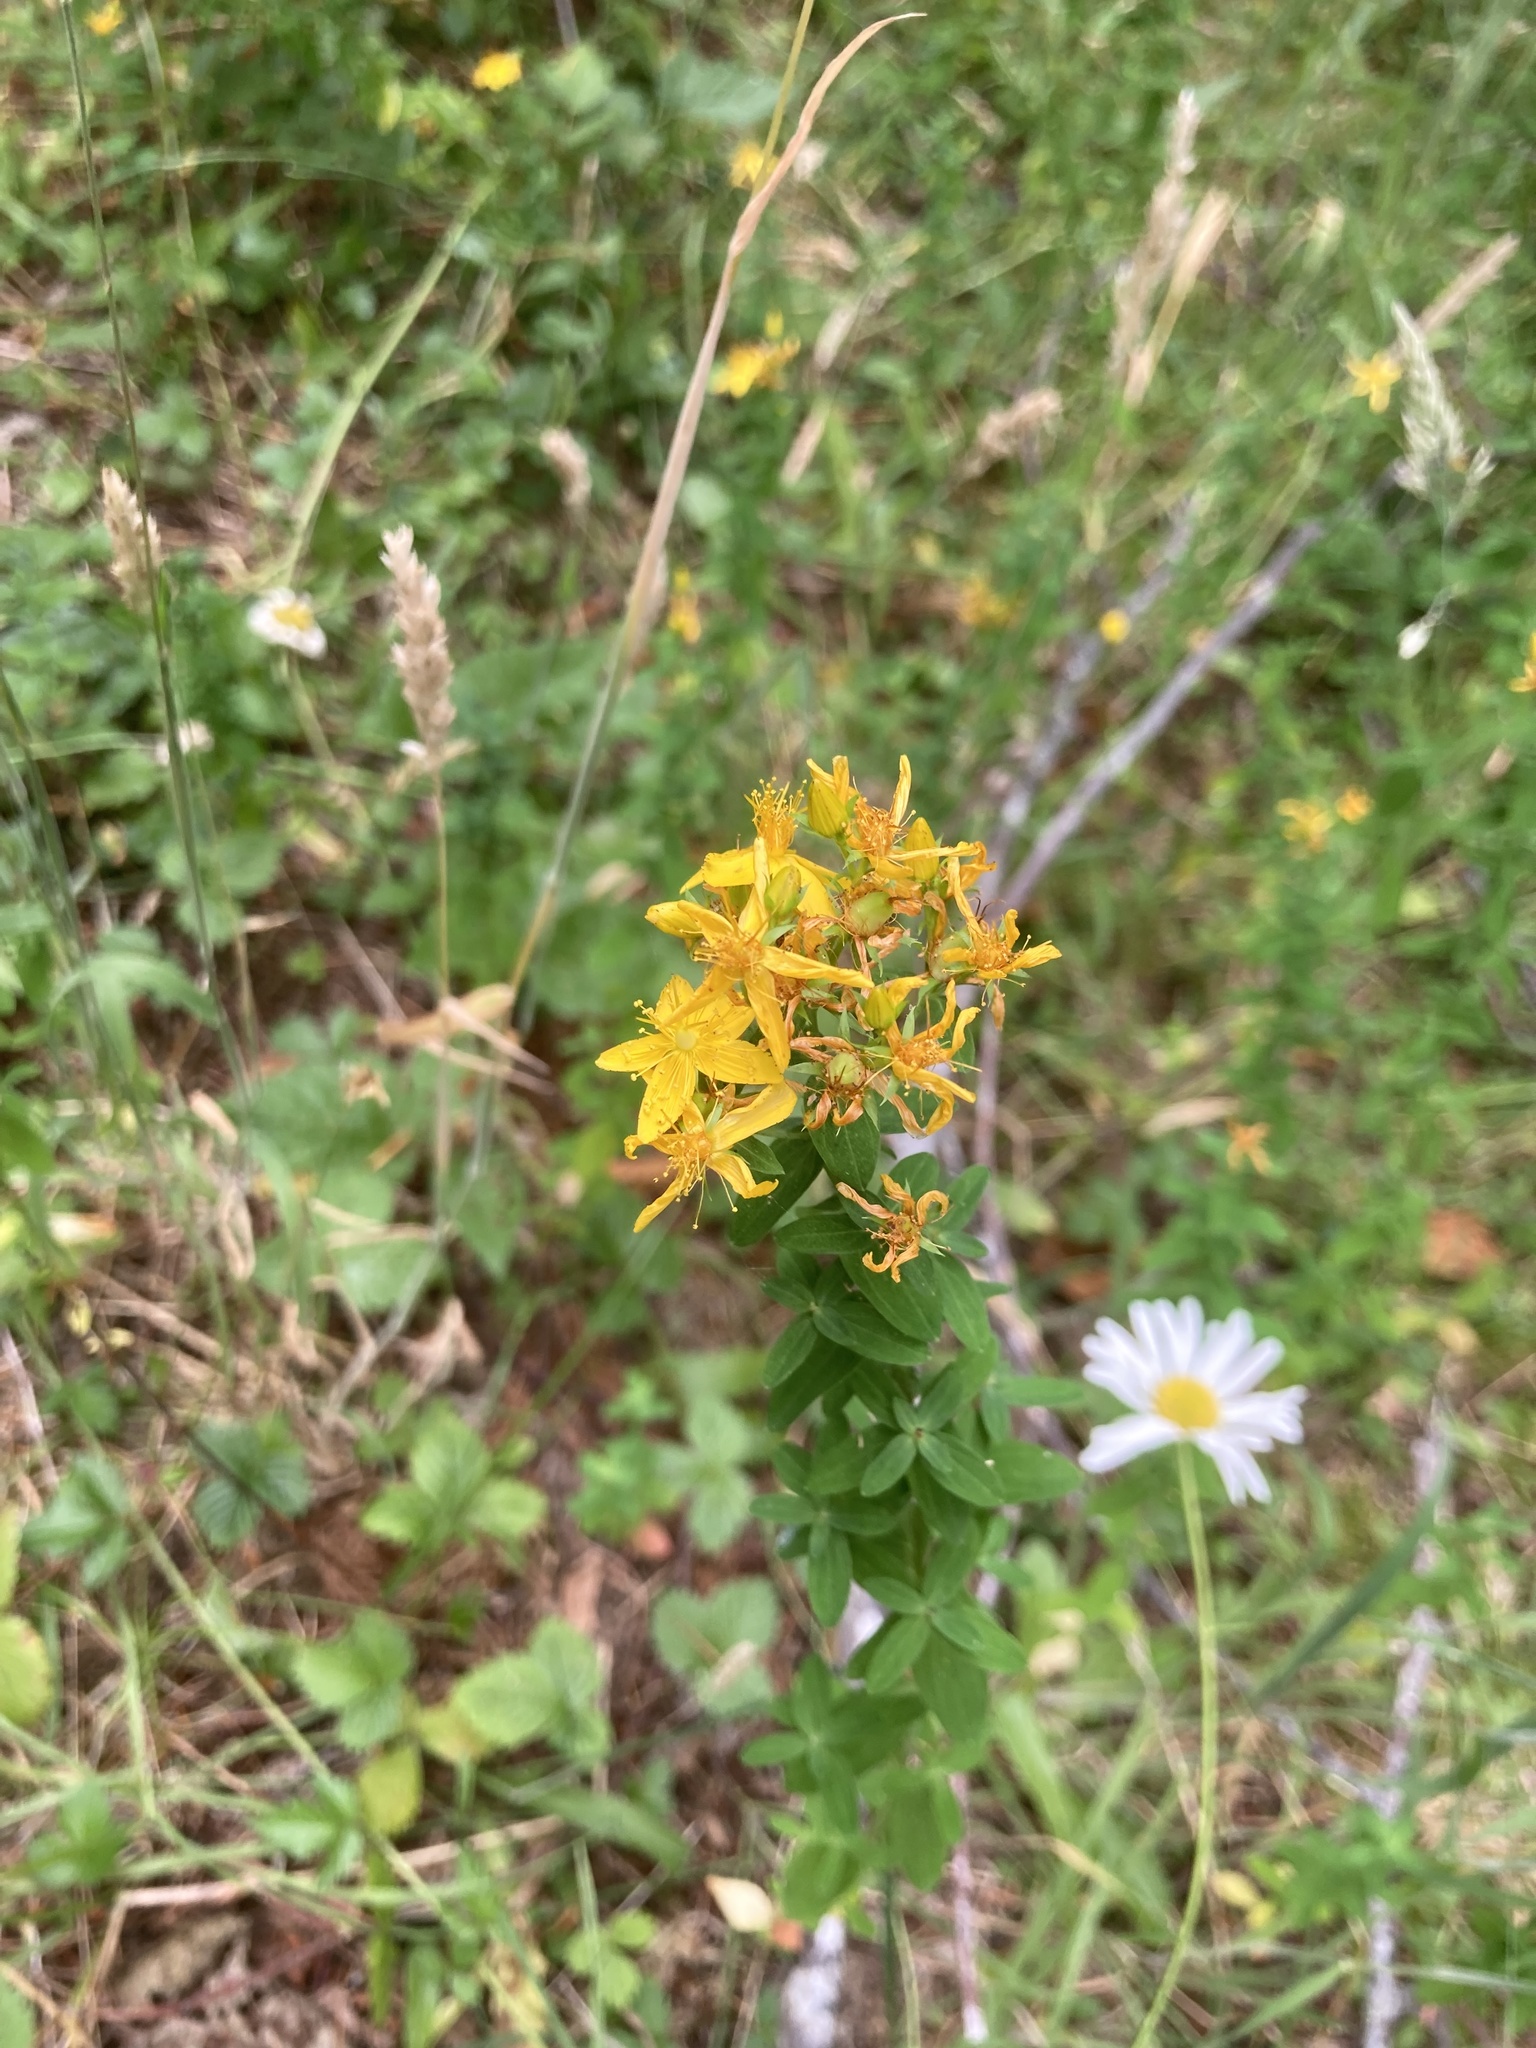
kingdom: Plantae
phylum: Tracheophyta
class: Magnoliopsida
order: Malpighiales
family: Hypericaceae
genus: Hypericum
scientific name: Hypericum perforatum
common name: Common st. johnswort
